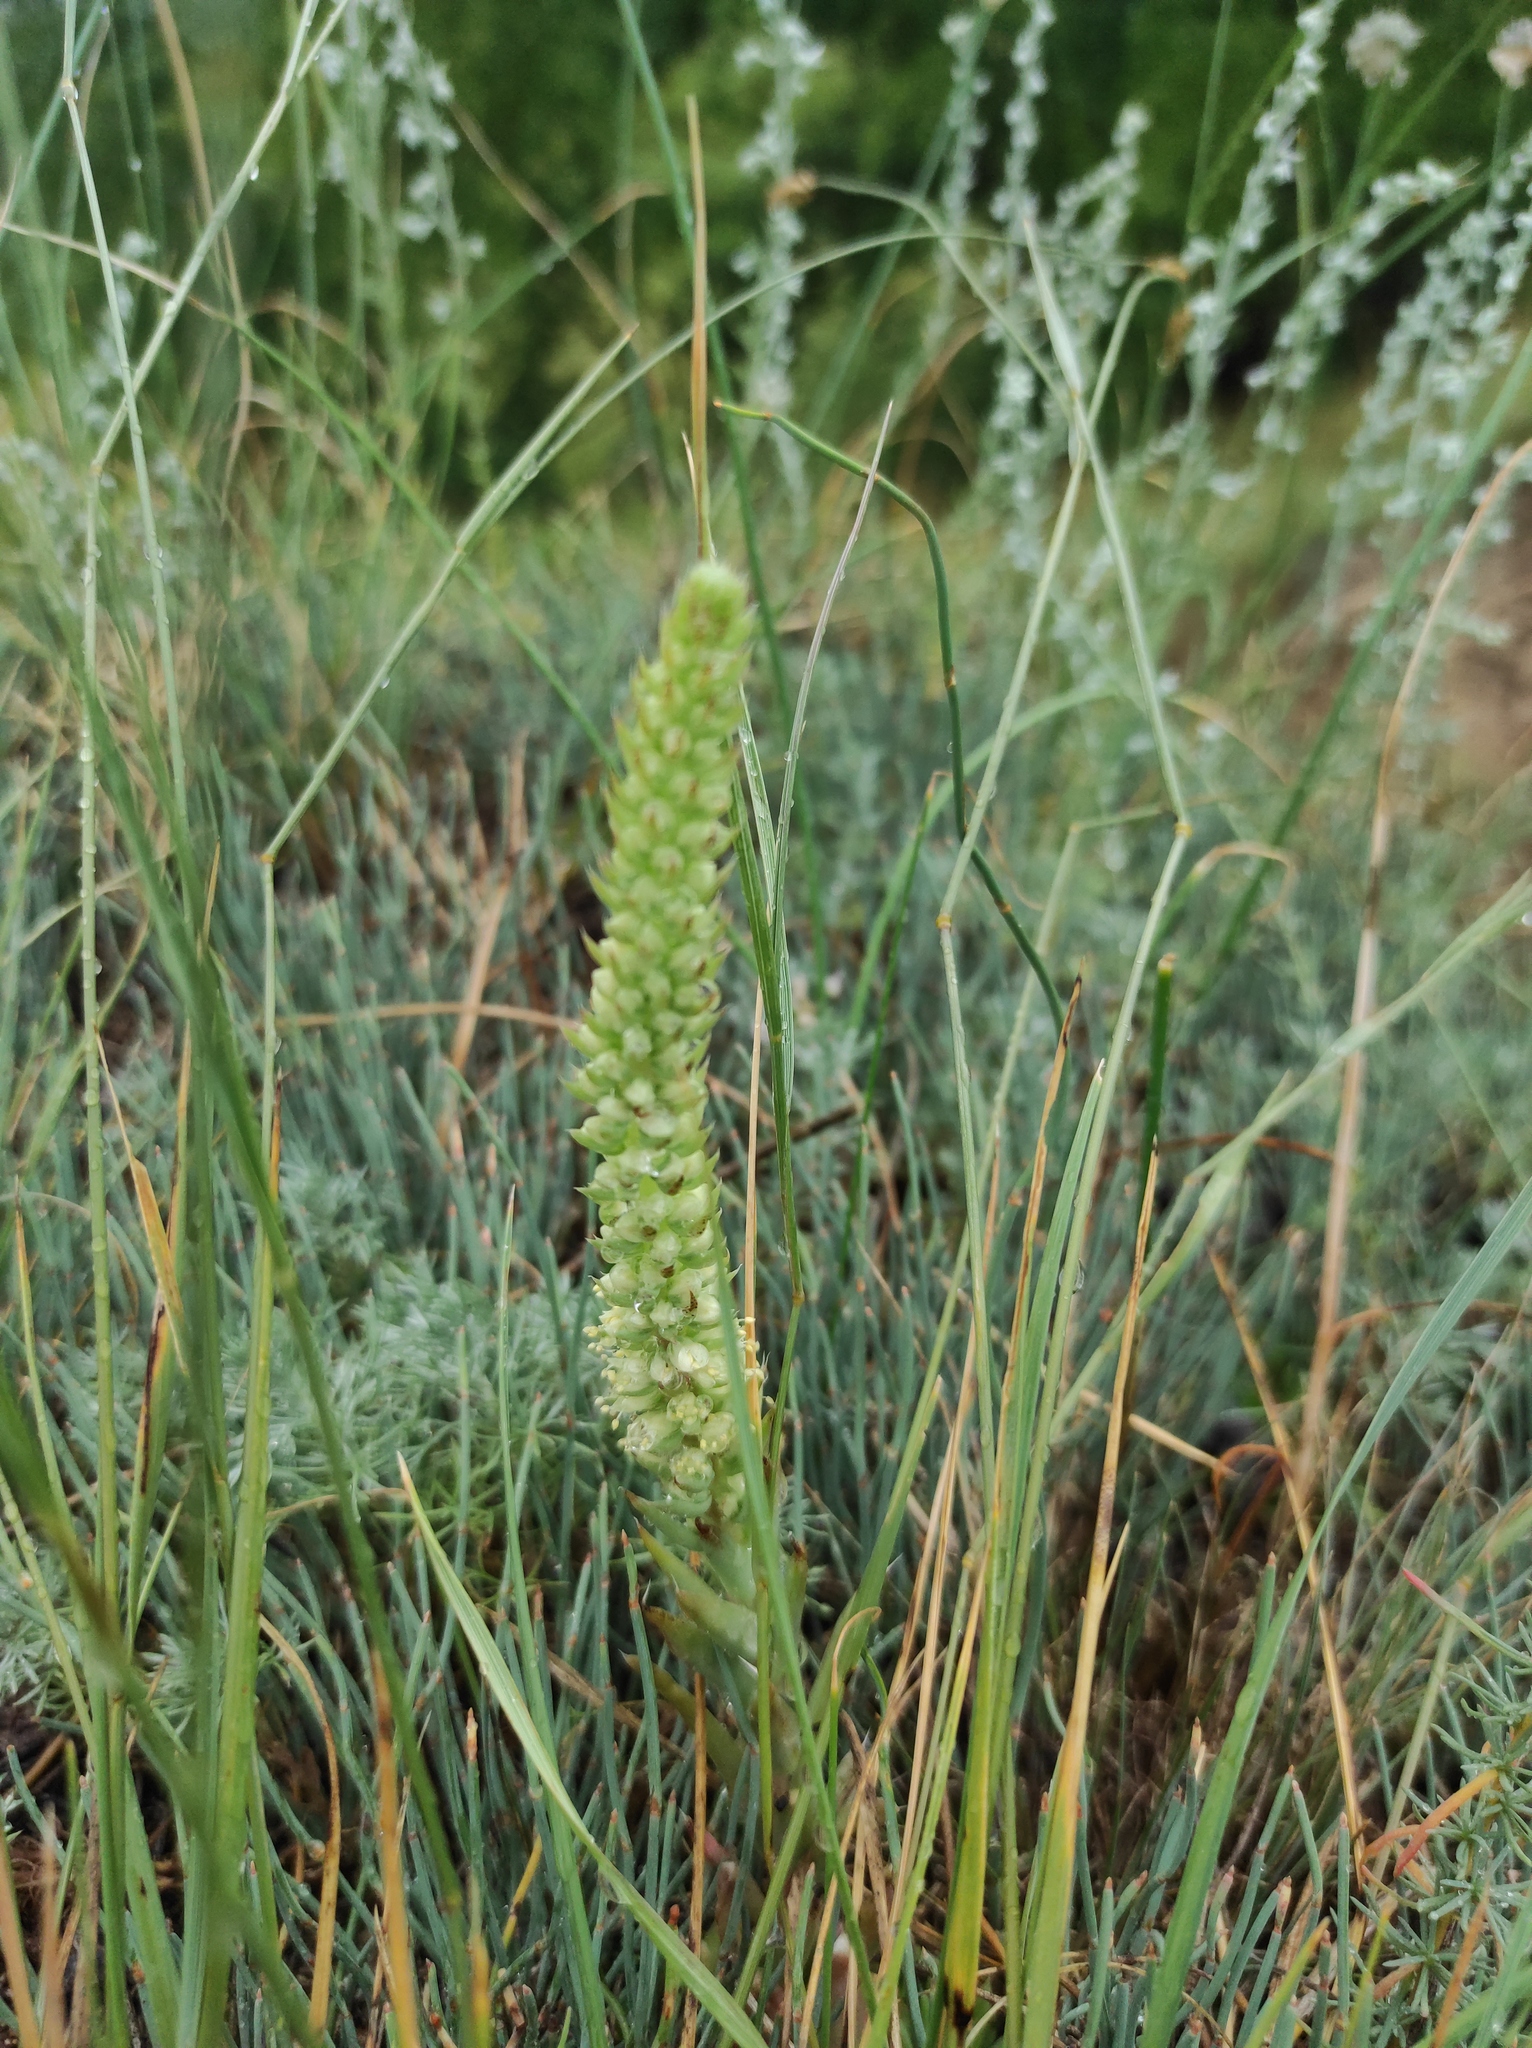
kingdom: Plantae
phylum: Tracheophyta
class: Magnoliopsida
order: Saxifragales
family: Crassulaceae
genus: Orostachys
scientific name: Orostachys spinosa
